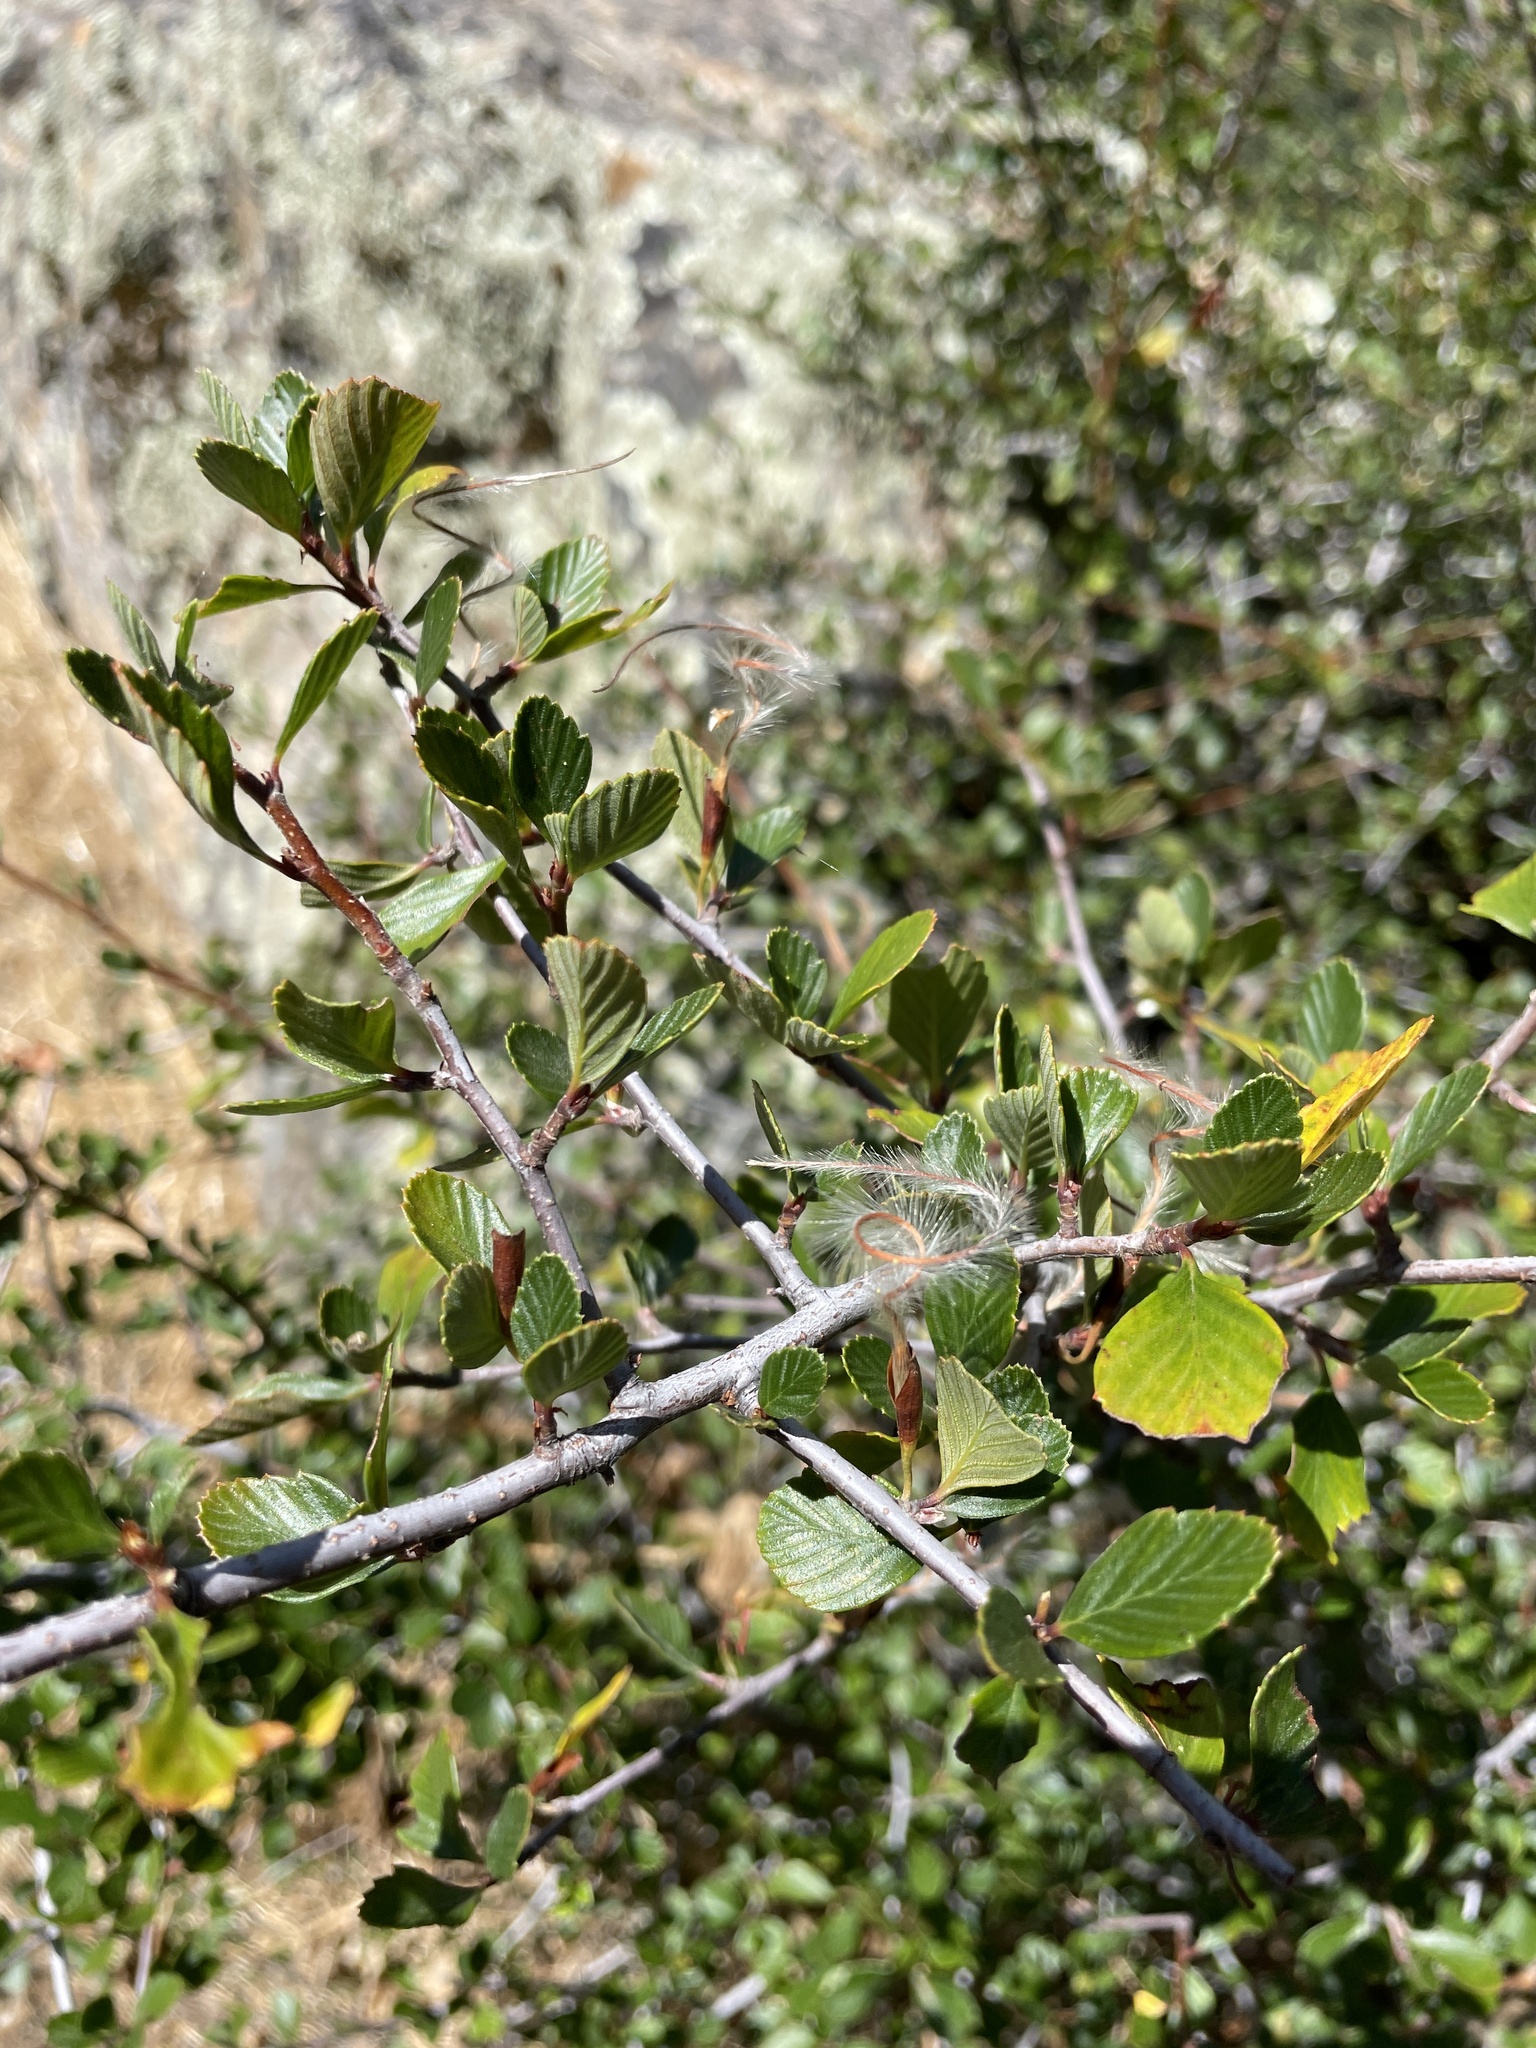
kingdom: Plantae
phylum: Tracheophyta
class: Magnoliopsida
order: Rosales
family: Rosaceae
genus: Cercocarpus
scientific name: Cercocarpus betuloides
